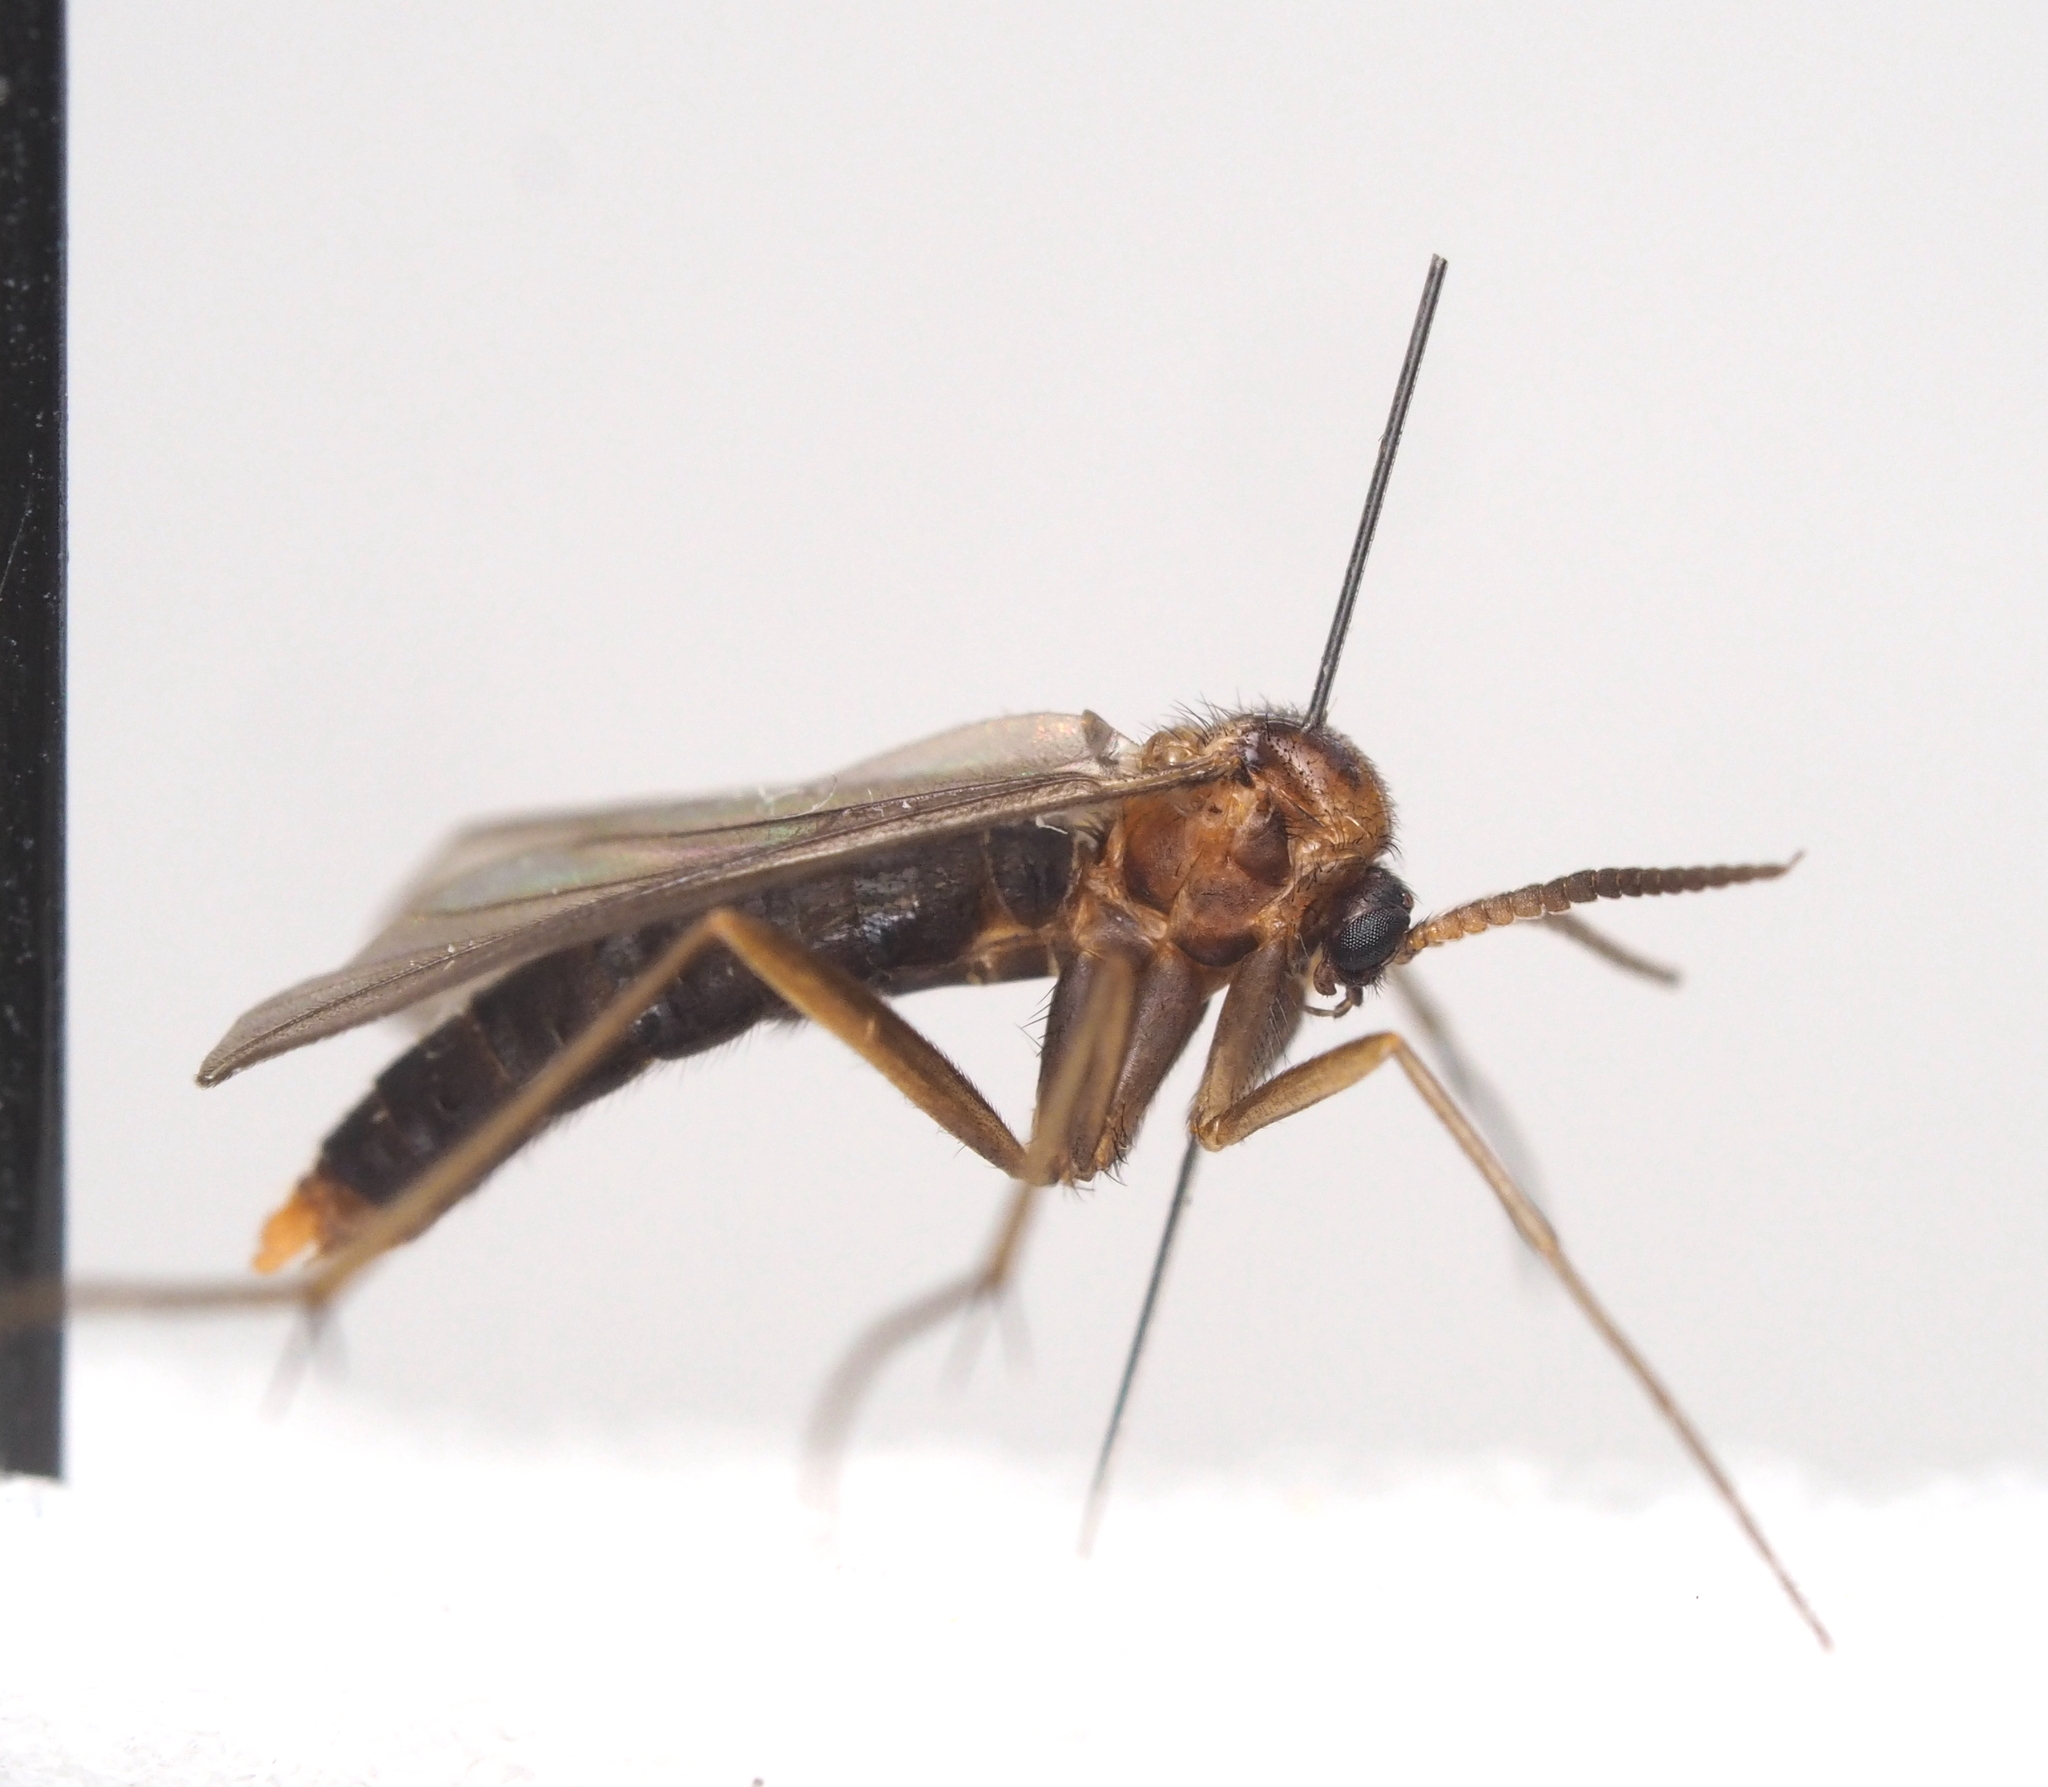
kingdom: Animalia
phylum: Arthropoda
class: Insecta
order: Diptera
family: Ditomyiidae
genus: Symmerus
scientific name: Symmerus annulatus
